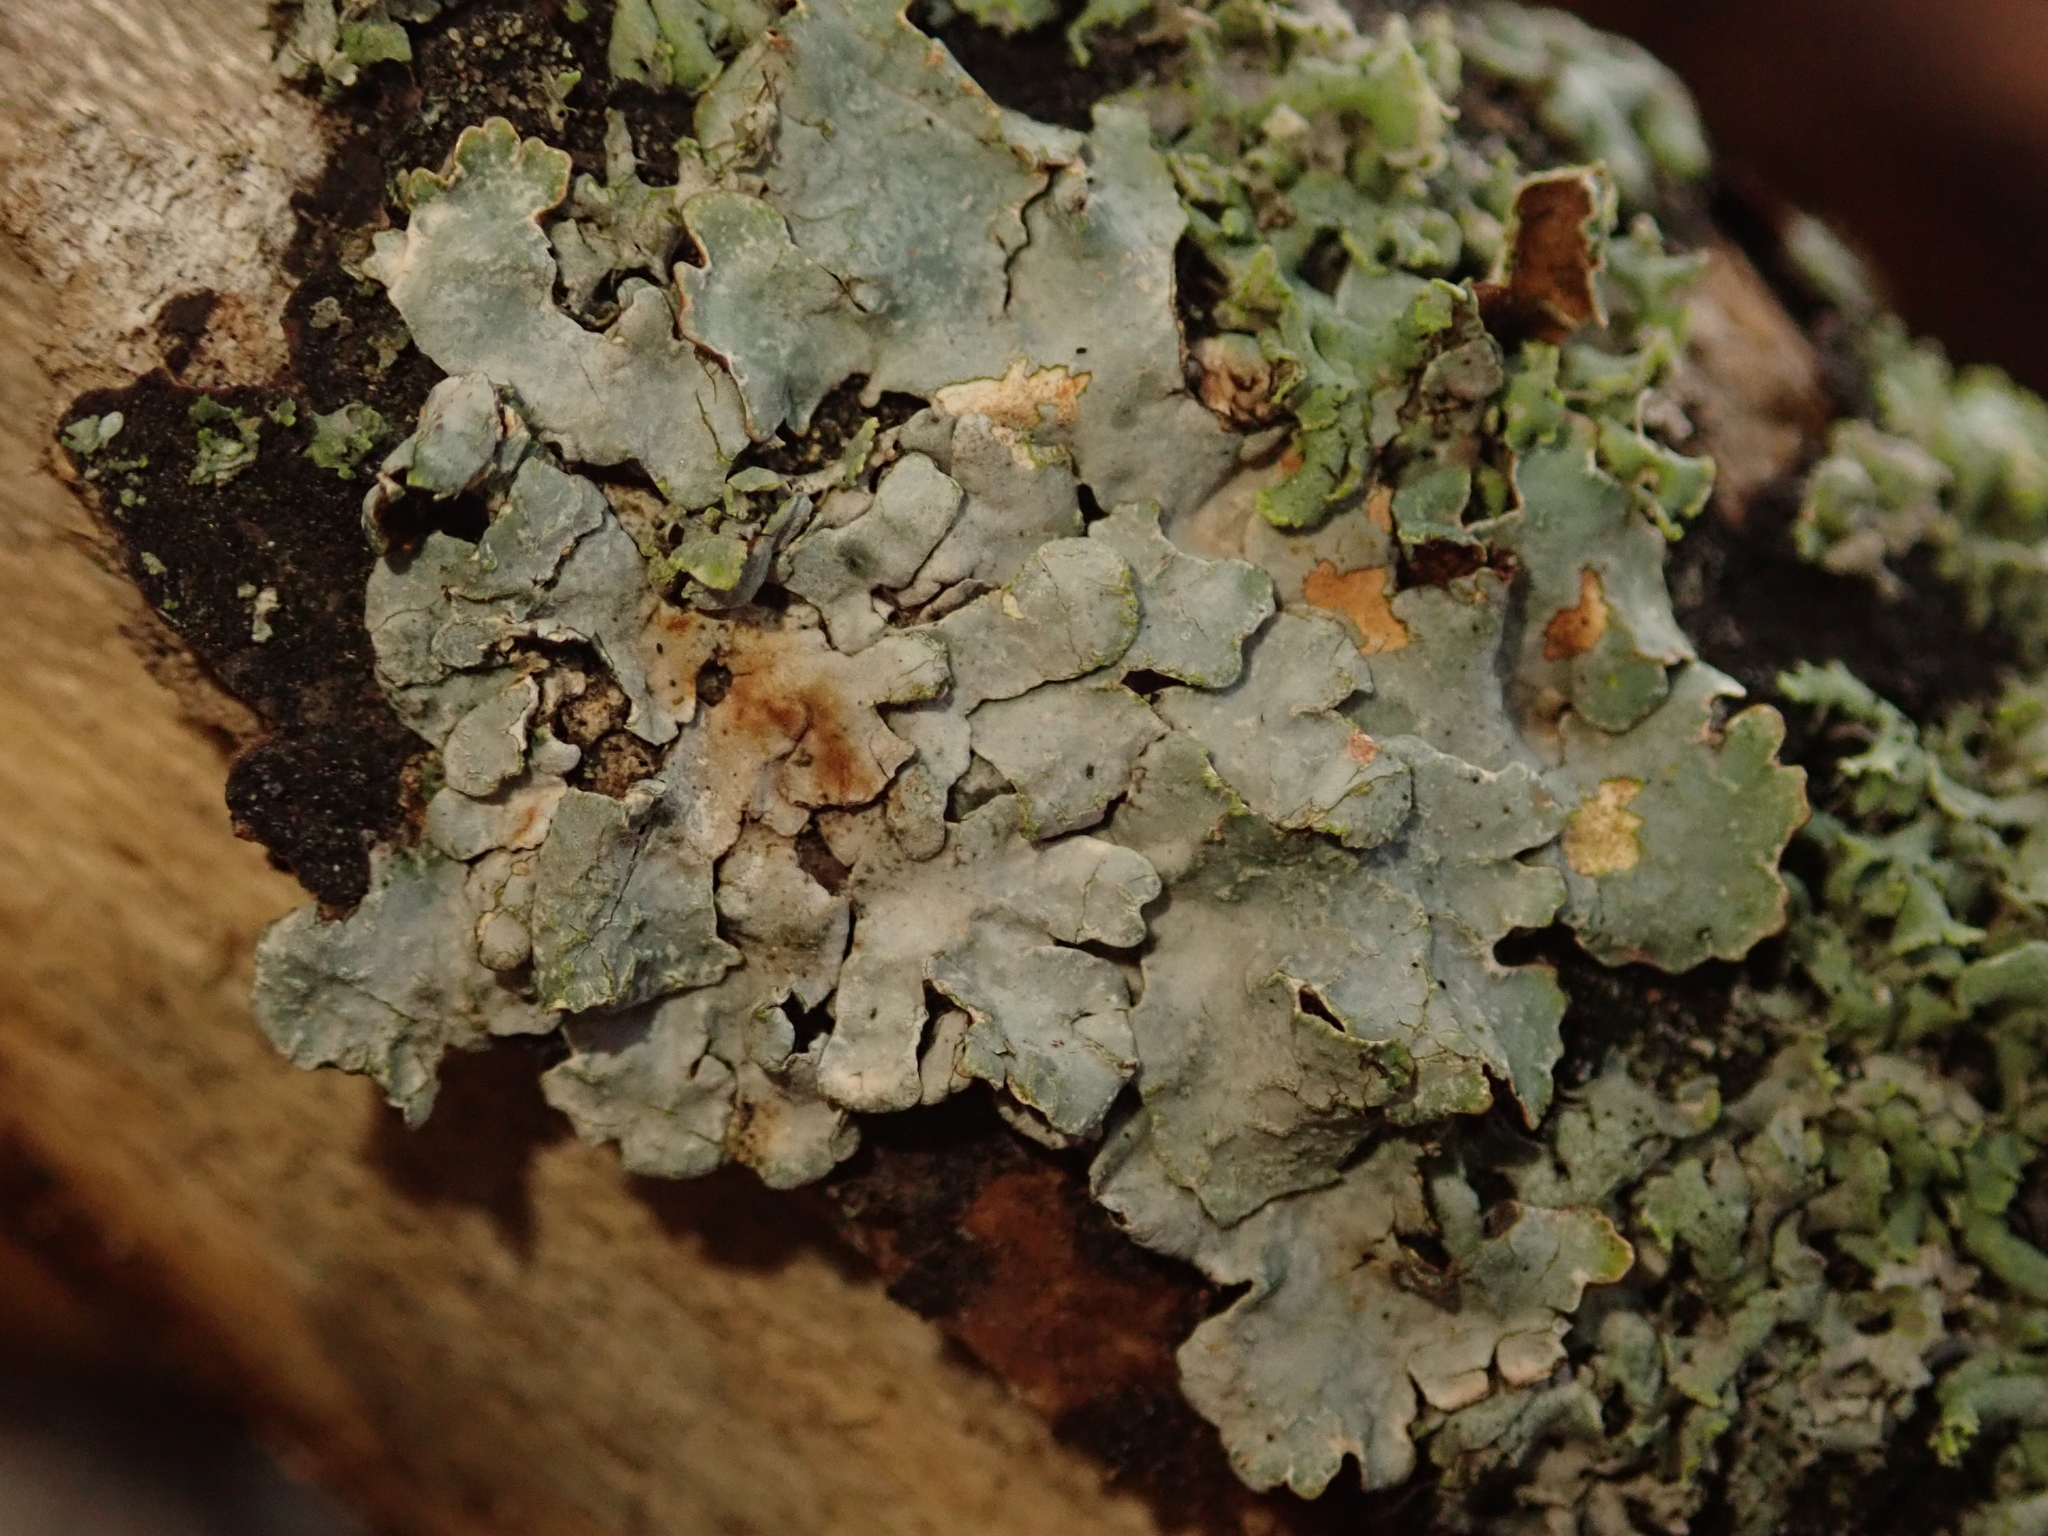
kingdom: Fungi
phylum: Ascomycota
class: Lecanoromycetes
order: Lecanorales
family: Parmeliaceae
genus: Parmelia
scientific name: Parmelia sulcata
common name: Netted shield lichen
